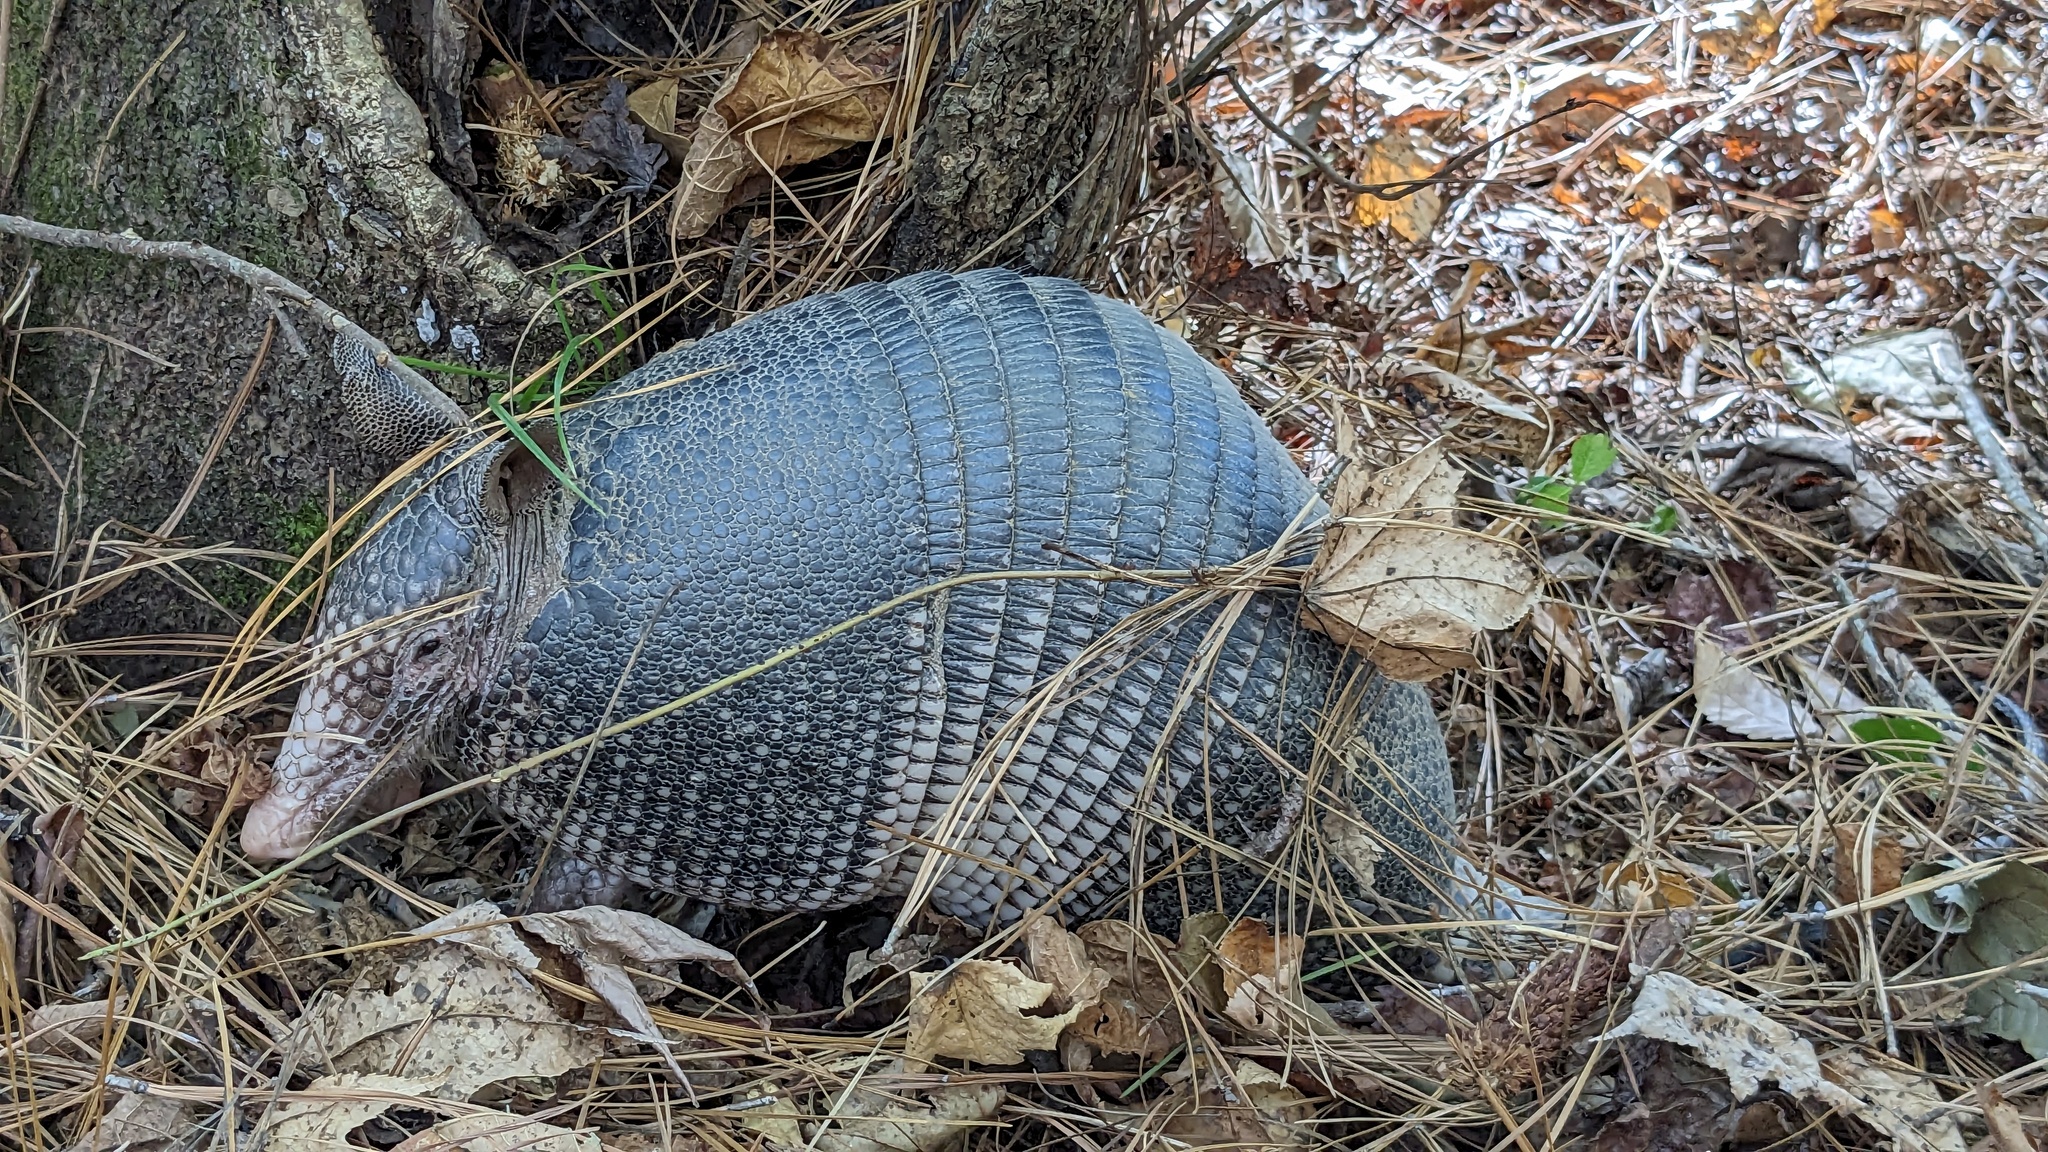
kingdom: Animalia
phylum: Chordata
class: Mammalia
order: Cingulata
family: Dasypodidae
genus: Dasypus
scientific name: Dasypus novemcinctus
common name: Nine-banded armadillo
